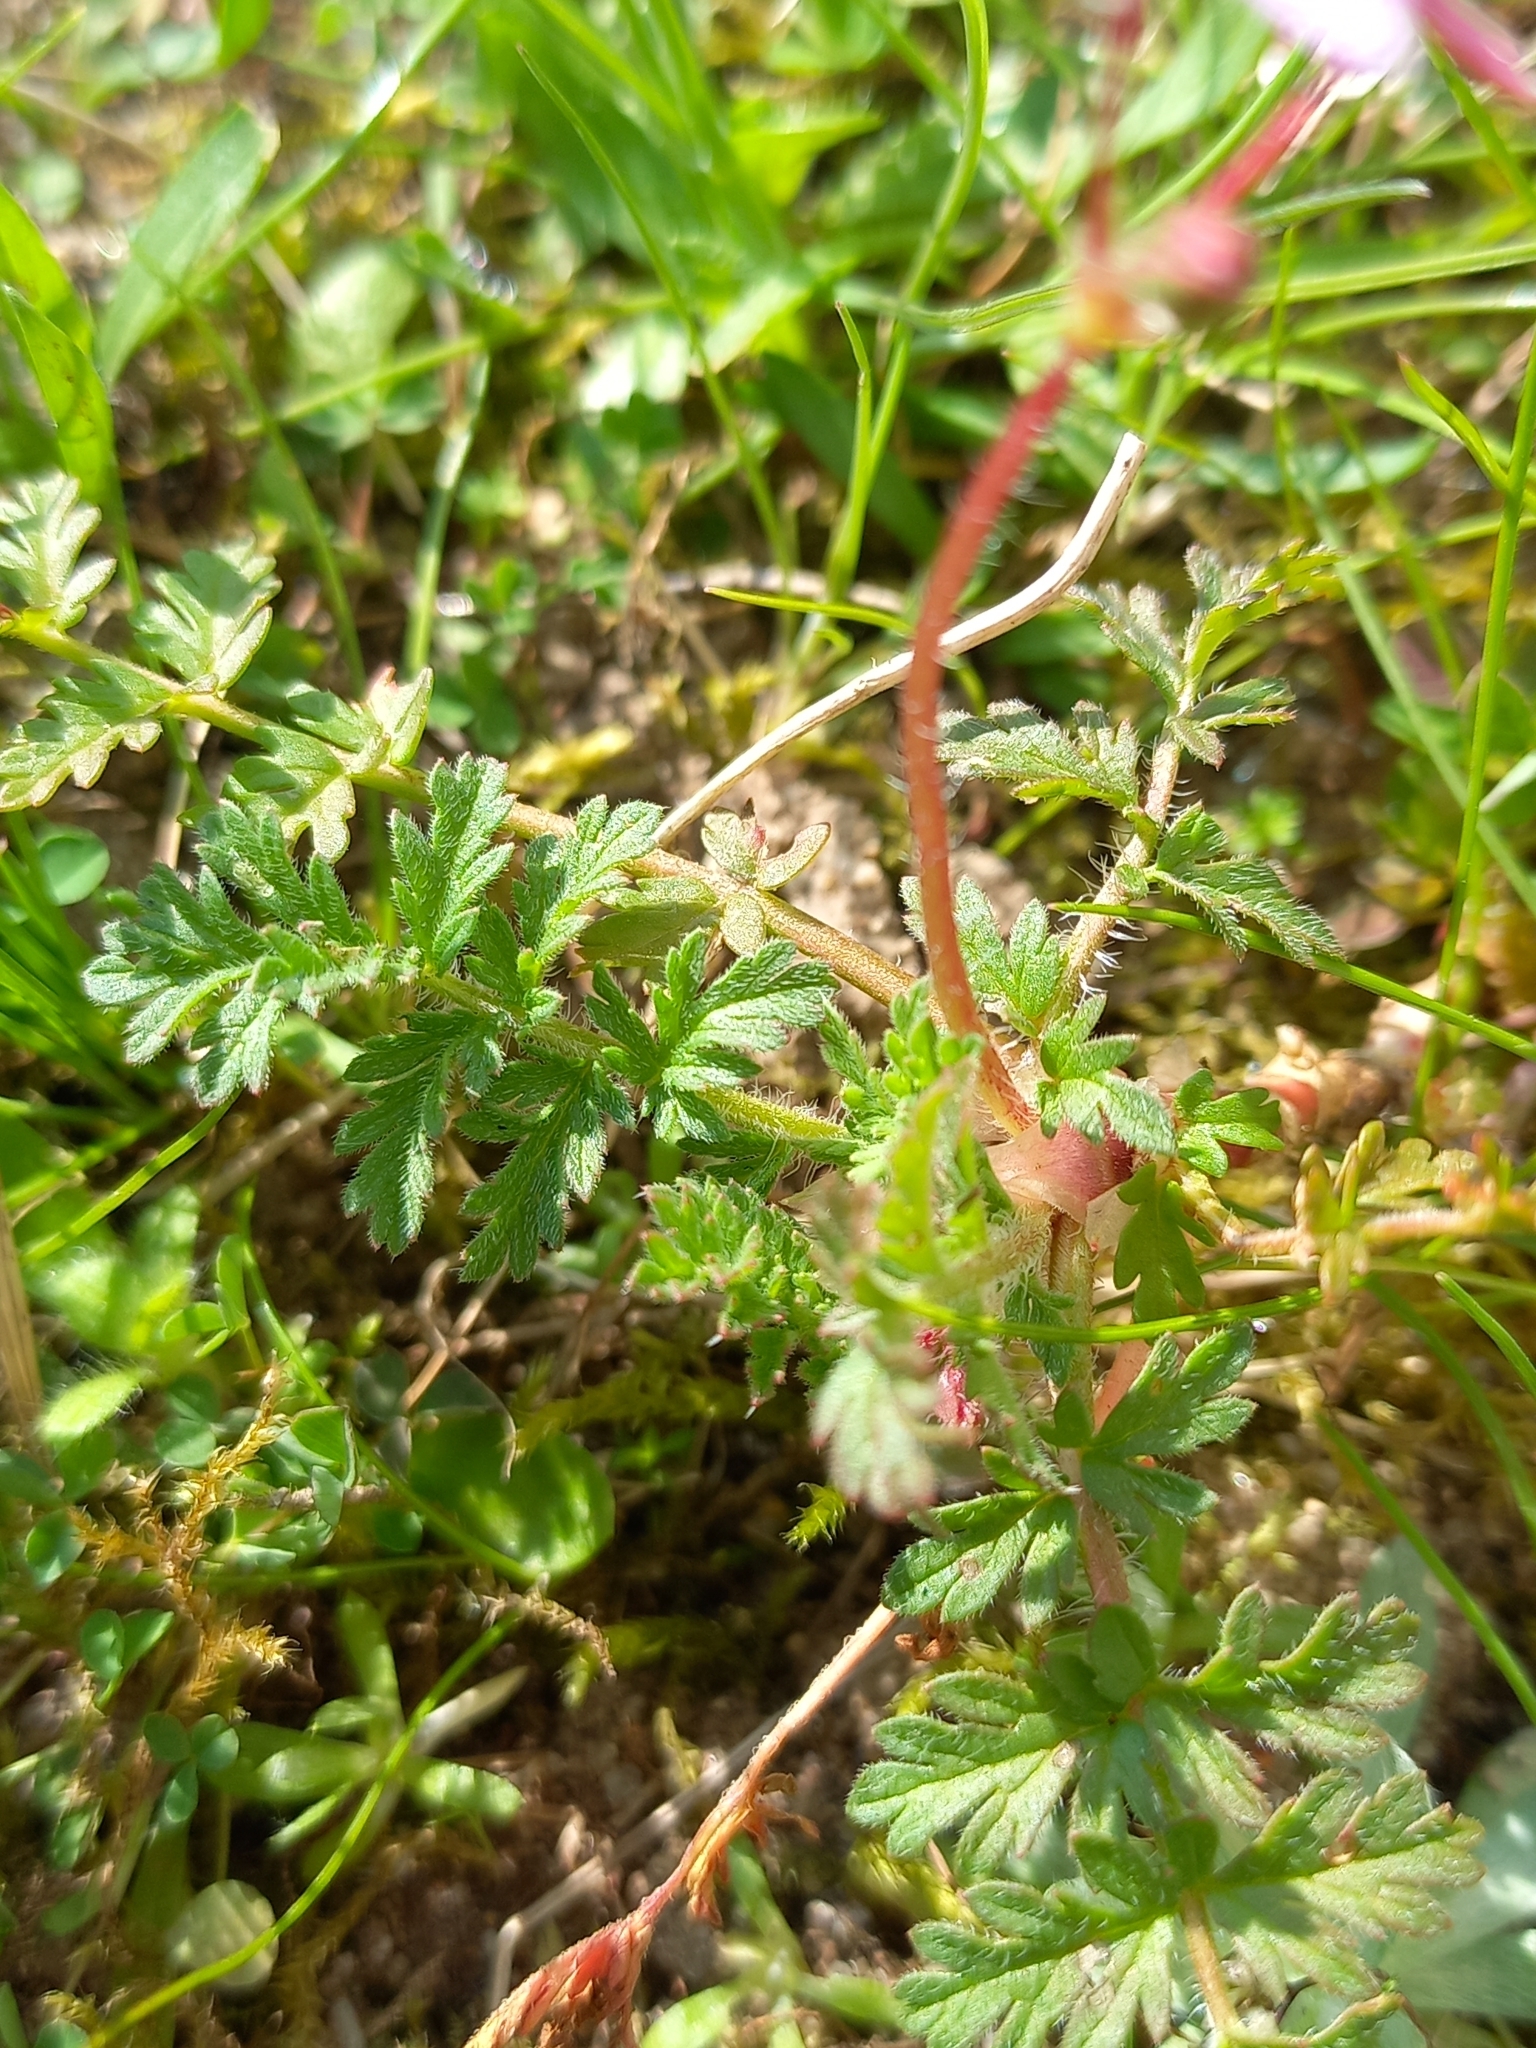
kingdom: Plantae
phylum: Tracheophyta
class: Magnoliopsida
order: Geraniales
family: Geraniaceae
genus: Erodium
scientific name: Erodium cicutarium
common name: Common stork's-bill
